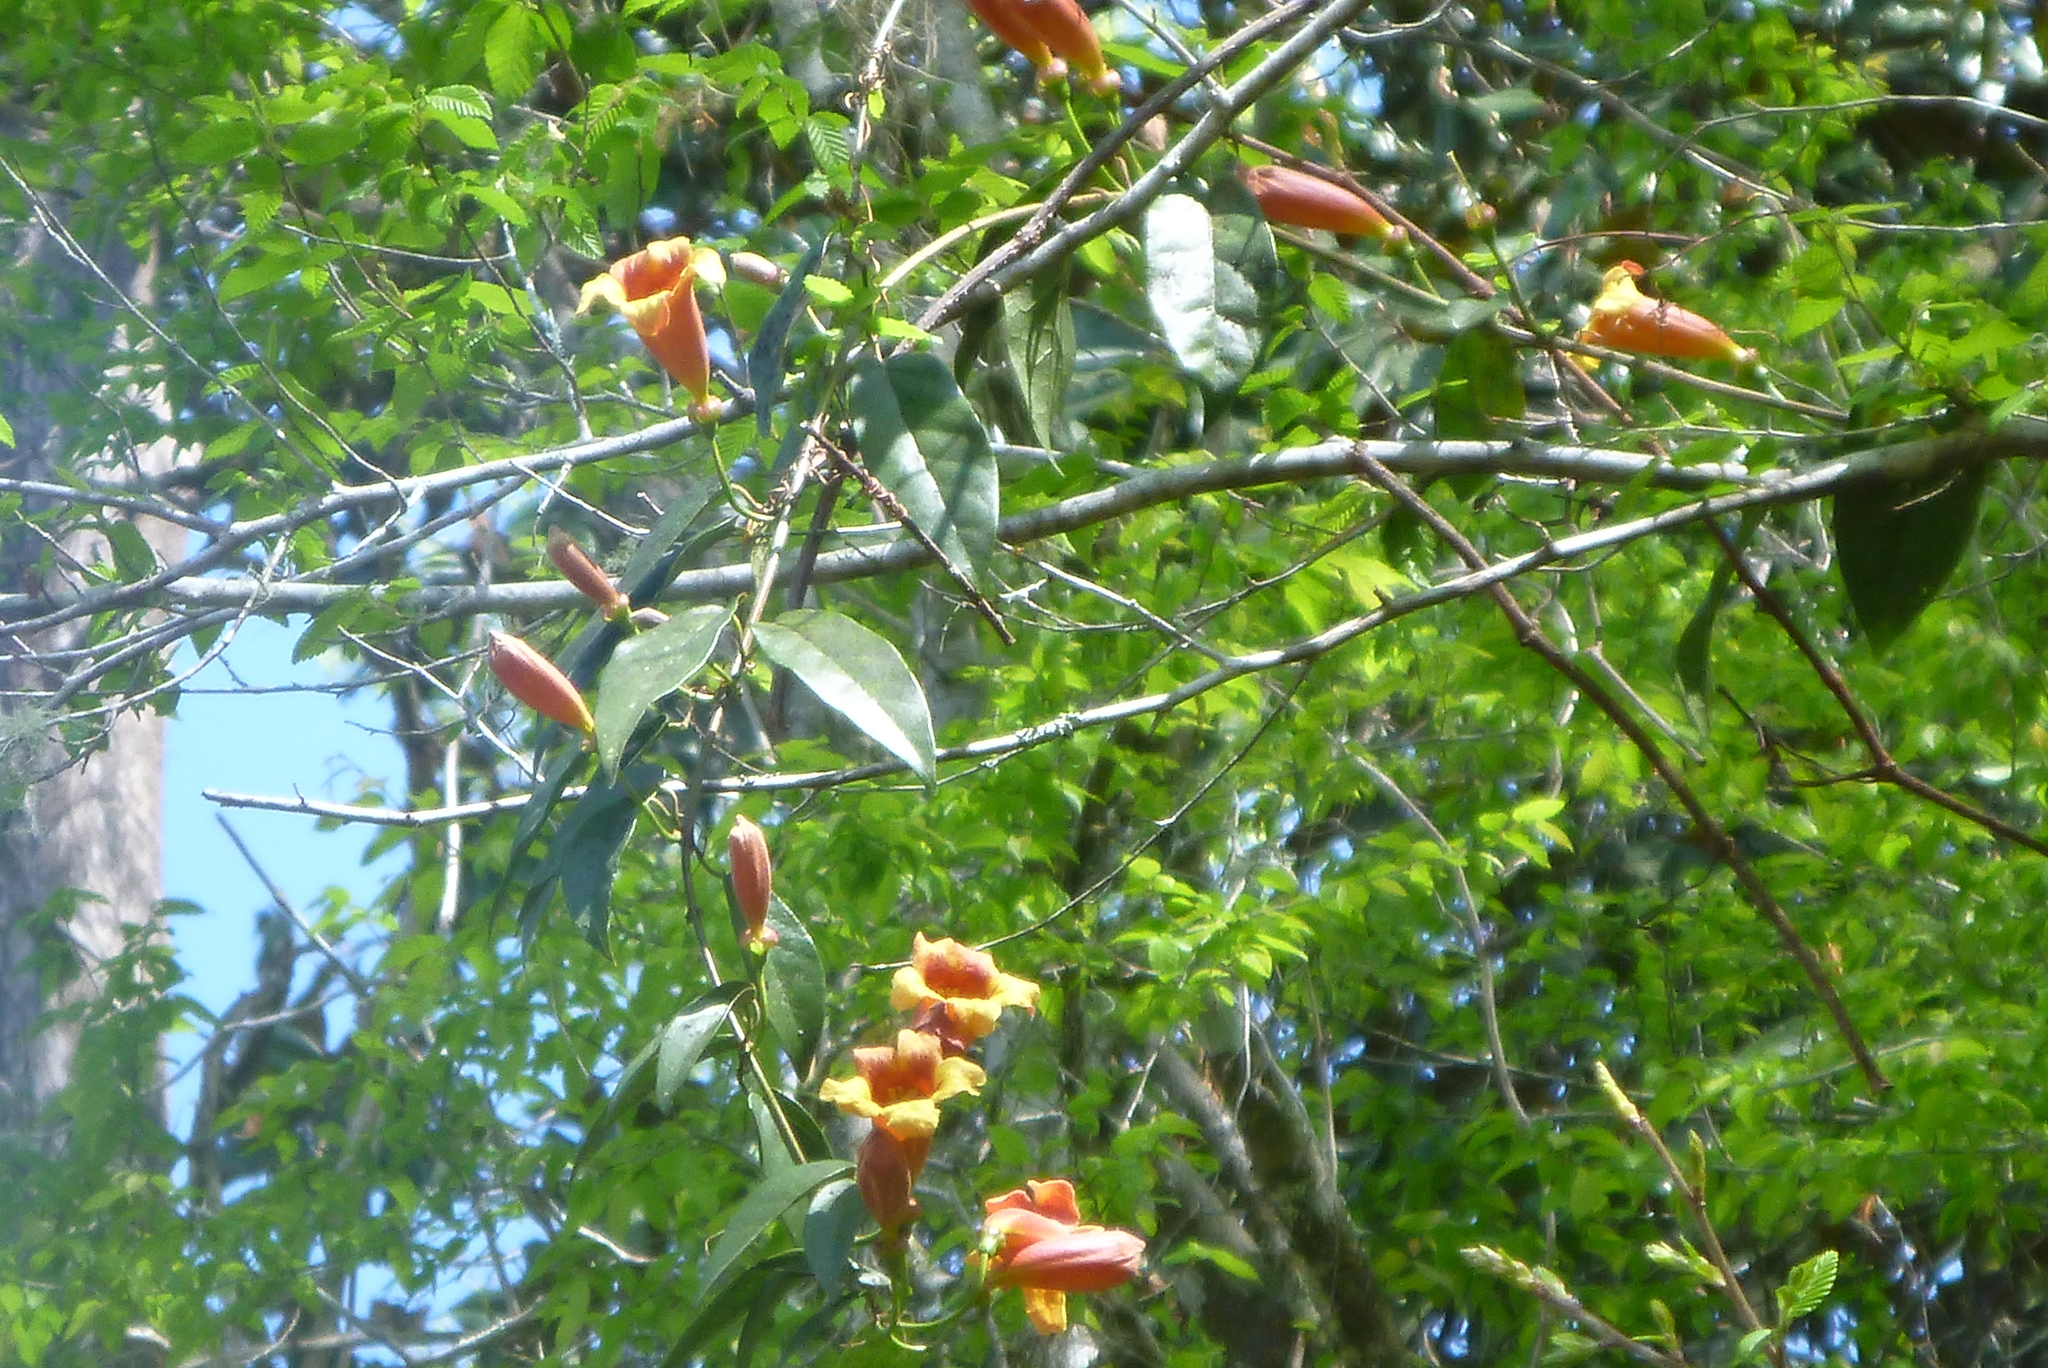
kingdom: Plantae
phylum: Tracheophyta
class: Magnoliopsida
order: Lamiales
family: Bignoniaceae
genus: Bignonia
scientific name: Bignonia capreolata
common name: Crossvine
